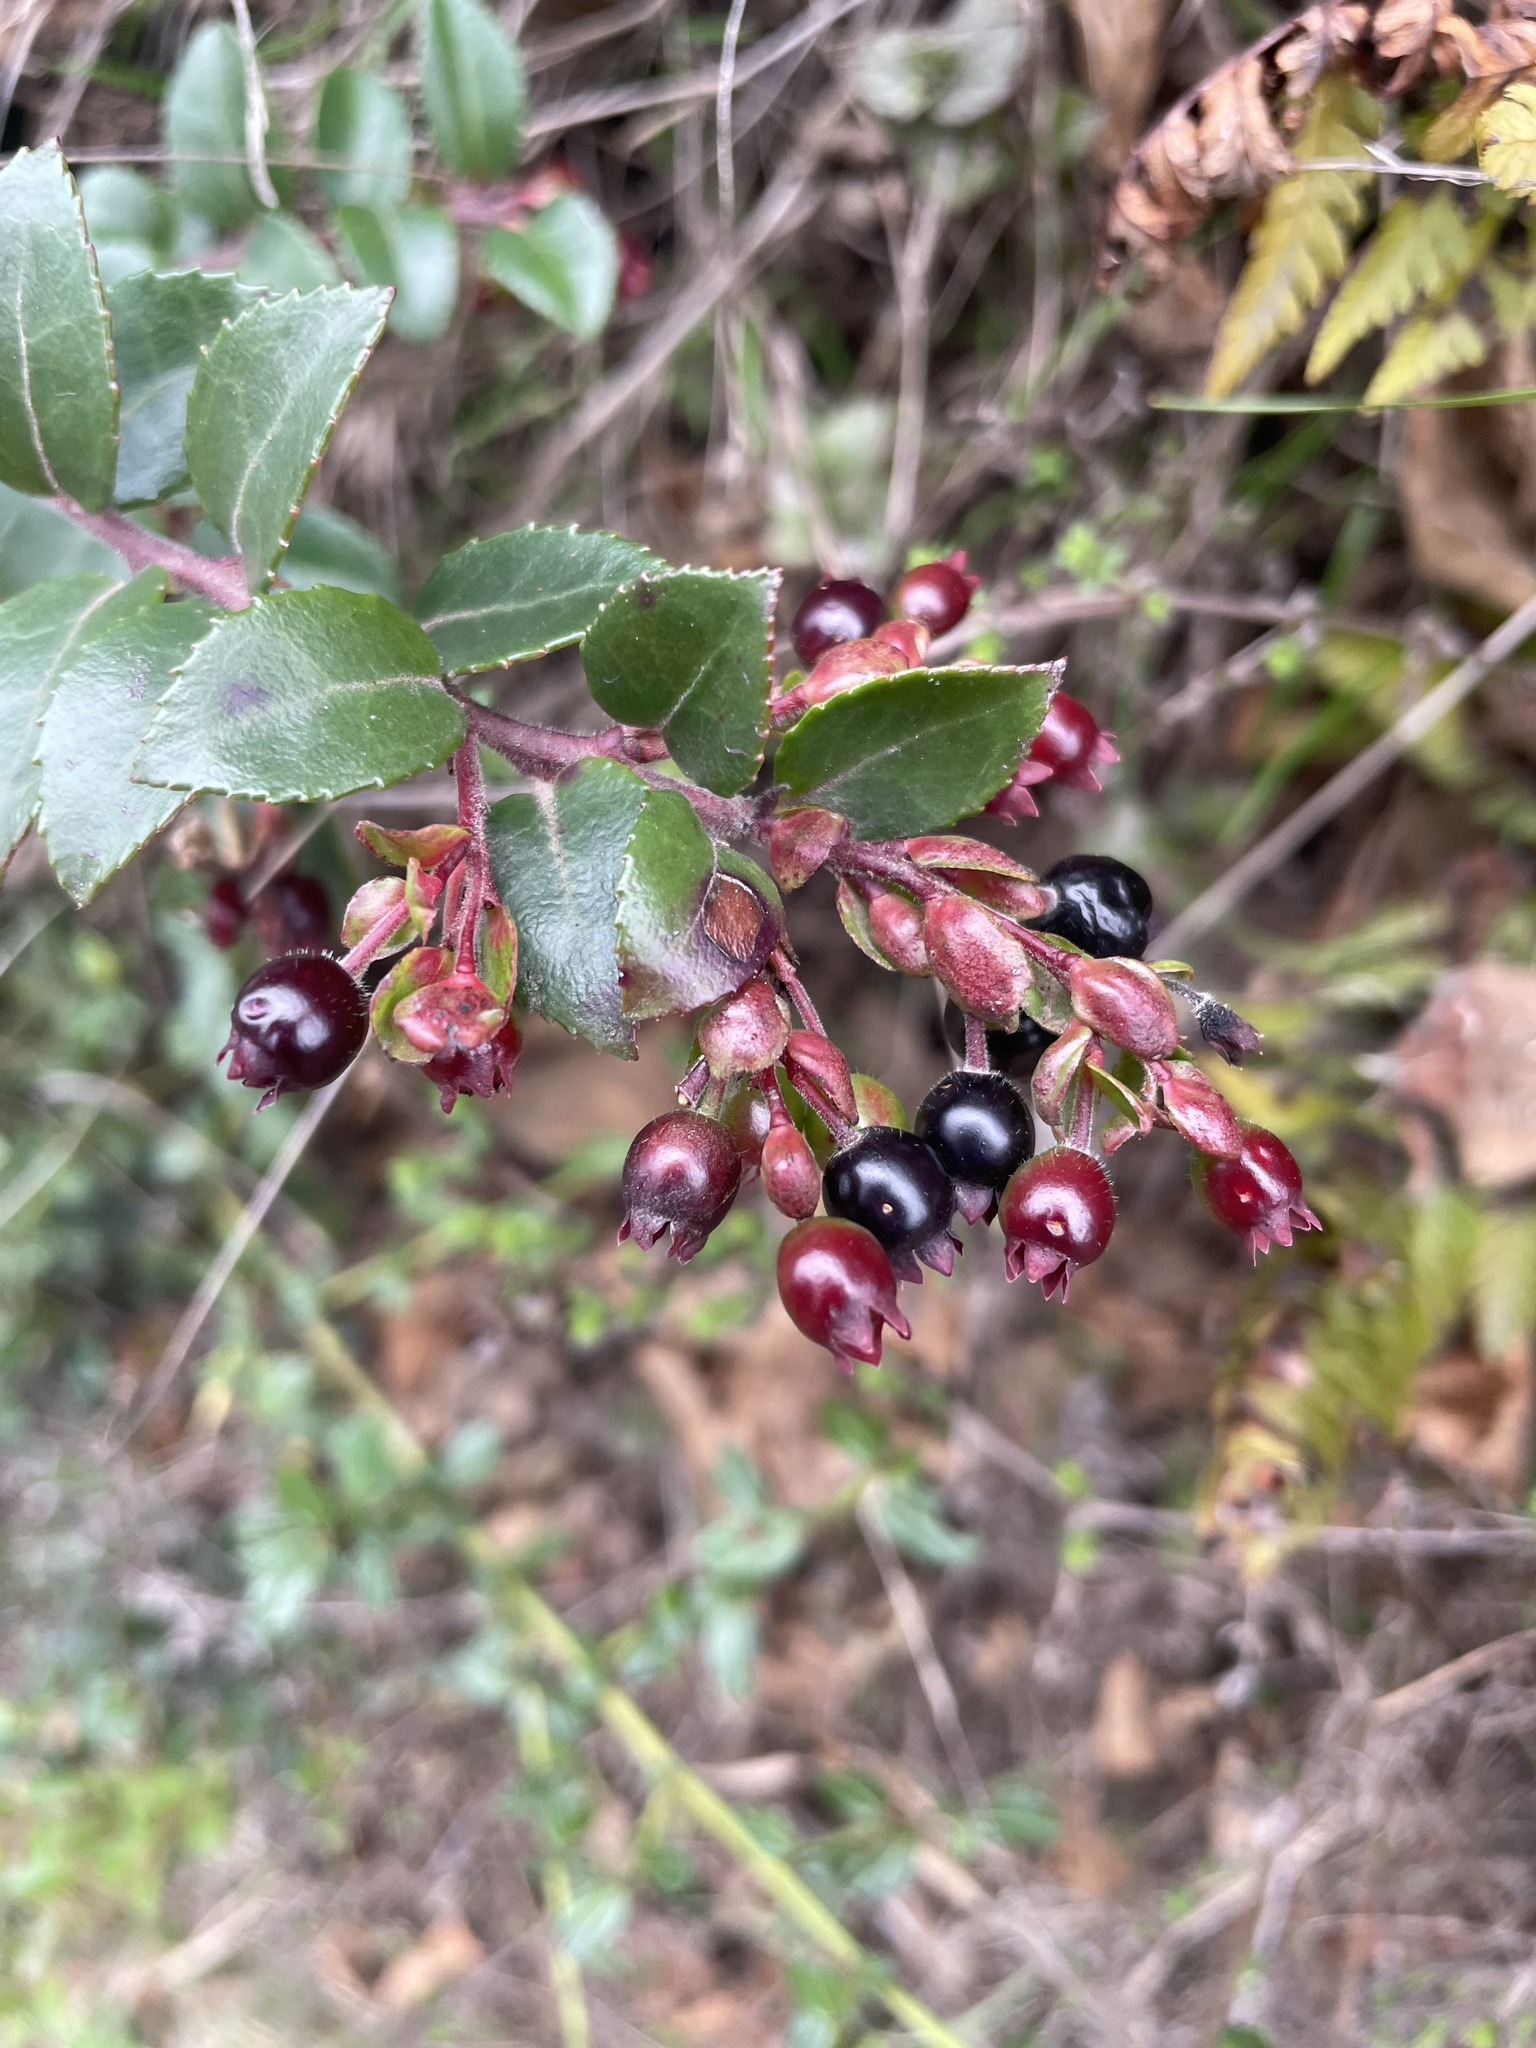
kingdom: Plantae
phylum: Tracheophyta
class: Magnoliopsida
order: Ericales
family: Ericaceae
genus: Vaccinium
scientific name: Vaccinium ovatum
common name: California-huckleberry
